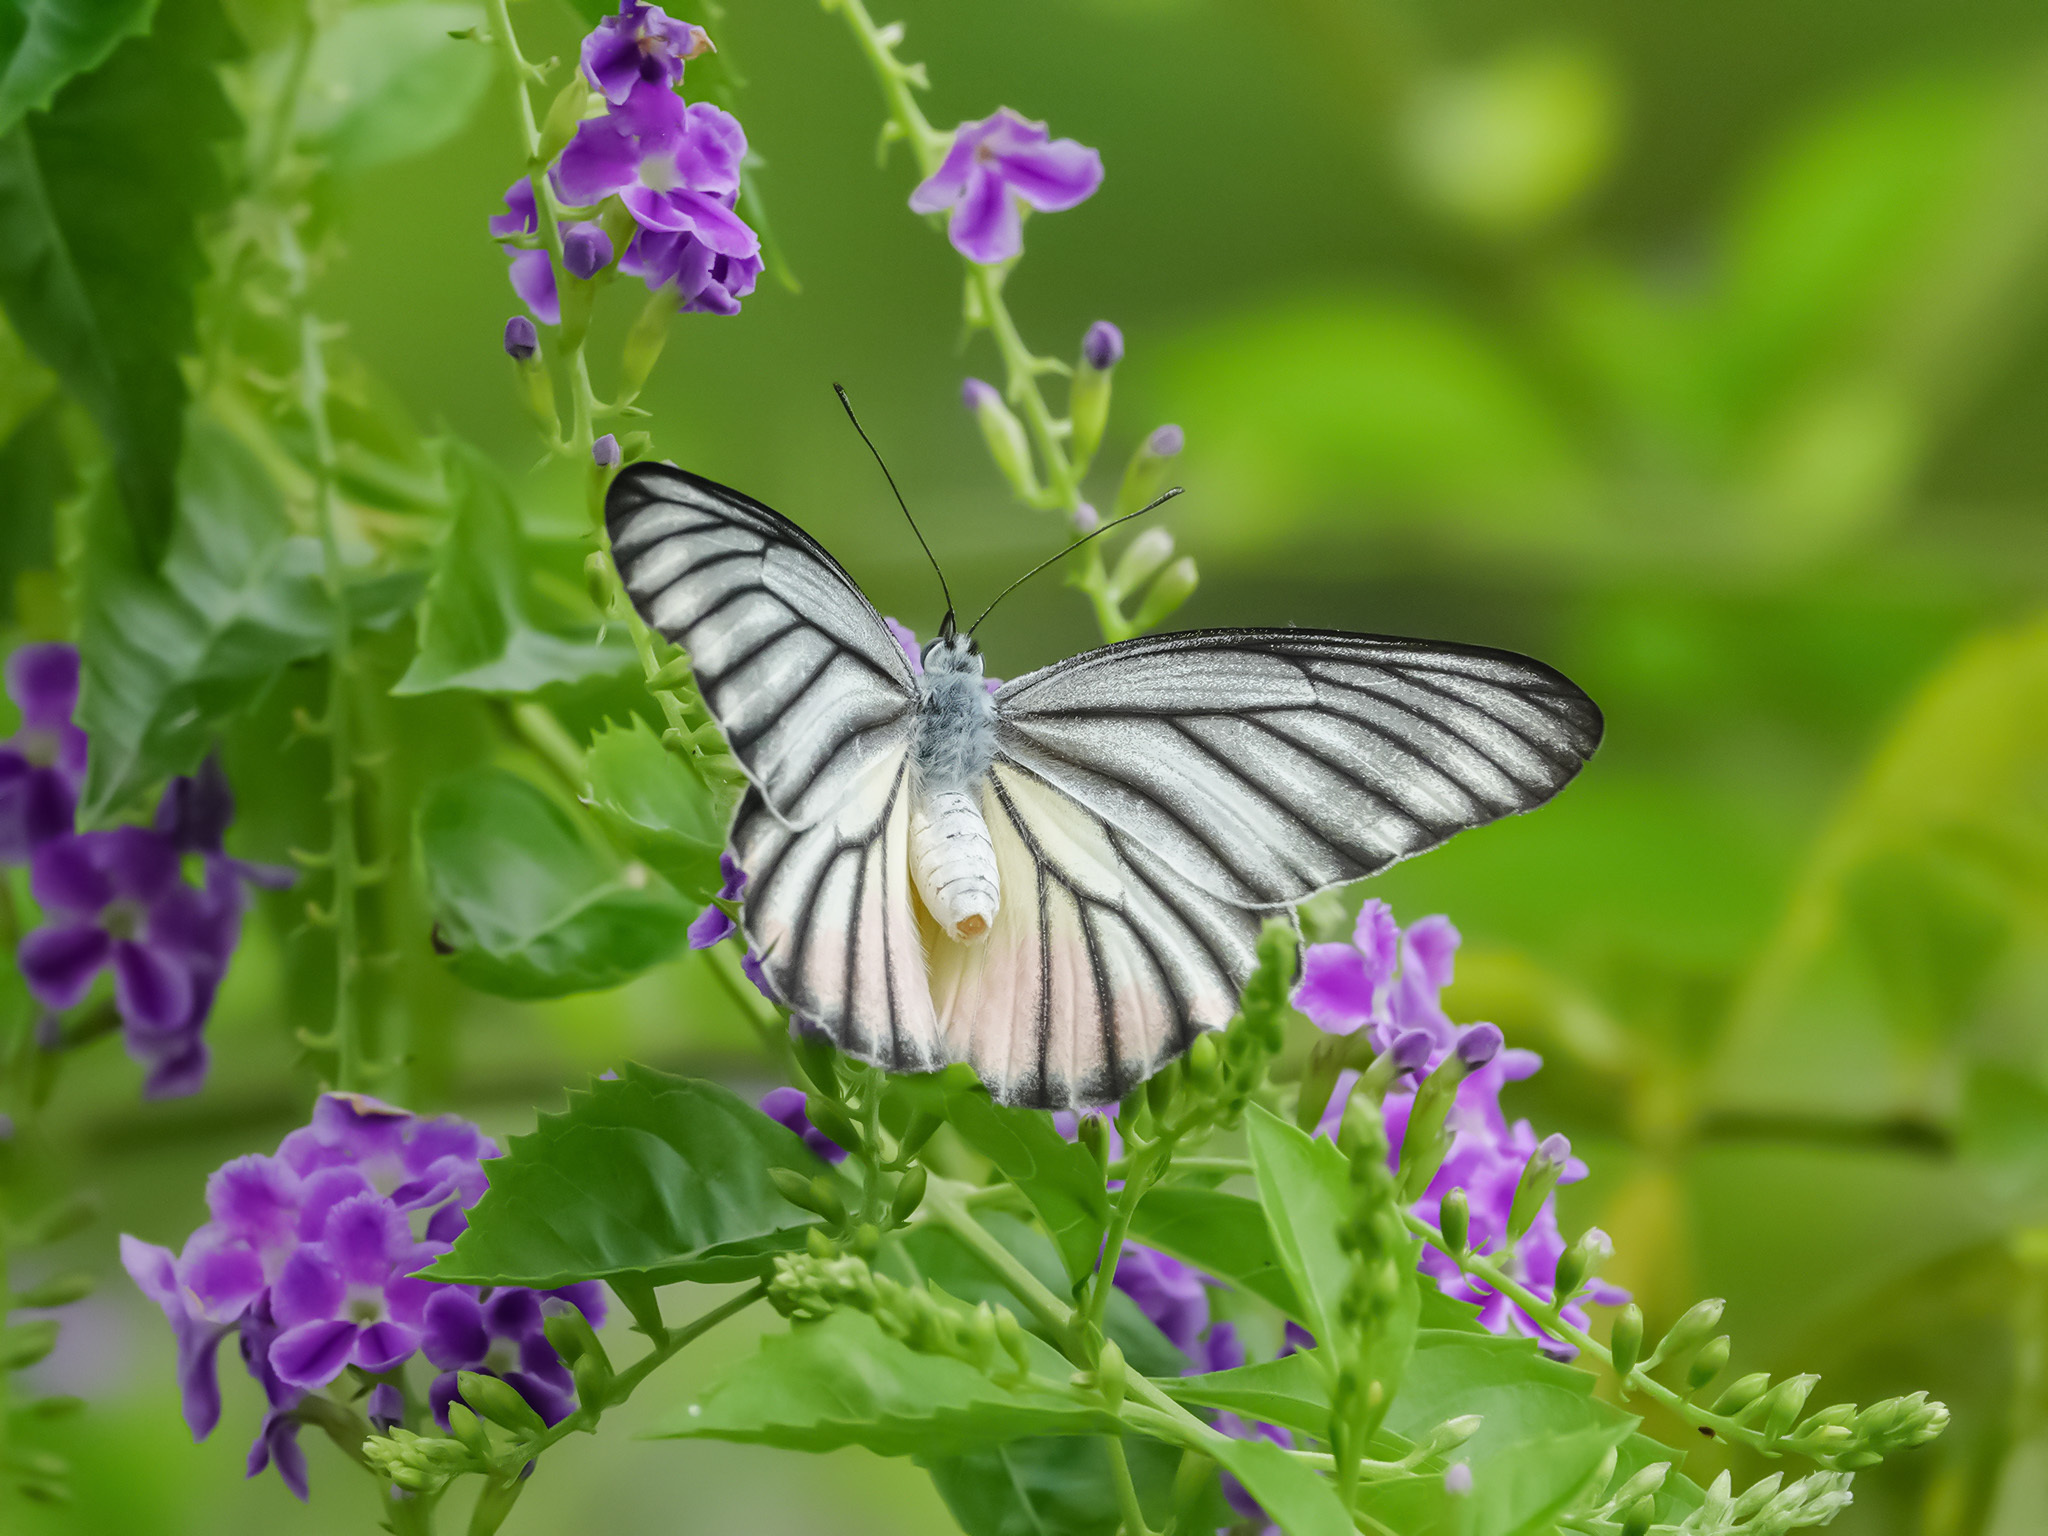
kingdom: Animalia
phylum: Arthropoda
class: Insecta
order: Lepidoptera
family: Pieridae
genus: Delias
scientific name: Delias hyparete
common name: Painted jezebel
